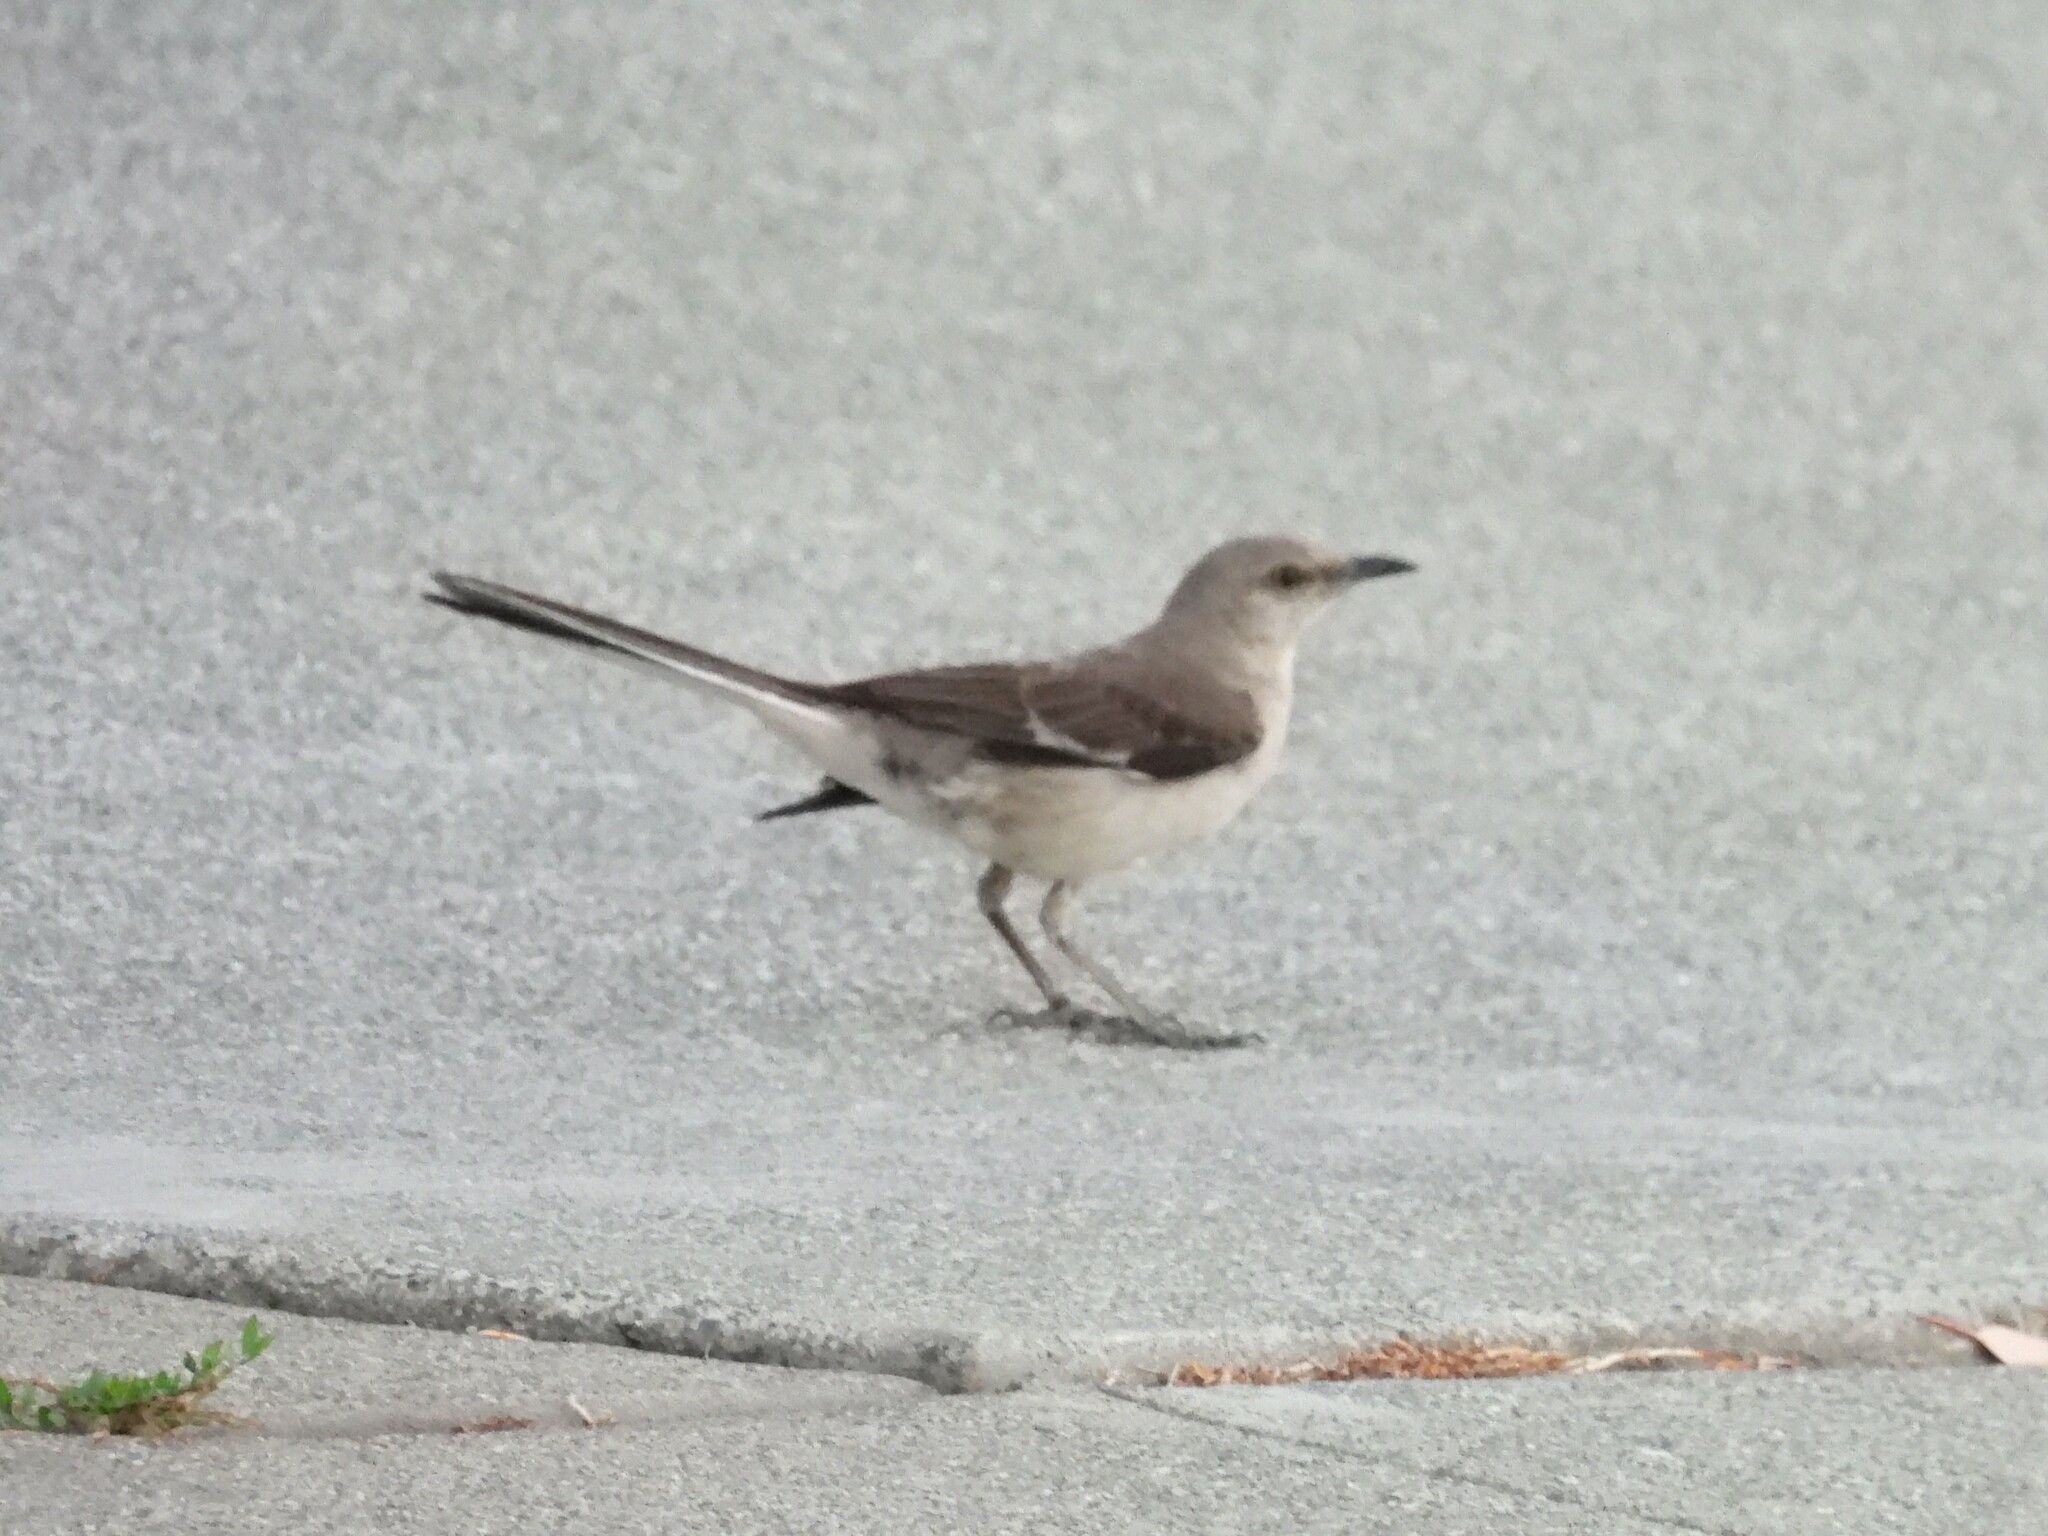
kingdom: Animalia
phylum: Chordata
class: Aves
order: Passeriformes
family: Mimidae
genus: Mimus
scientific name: Mimus polyglottos
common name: Northern mockingbird
